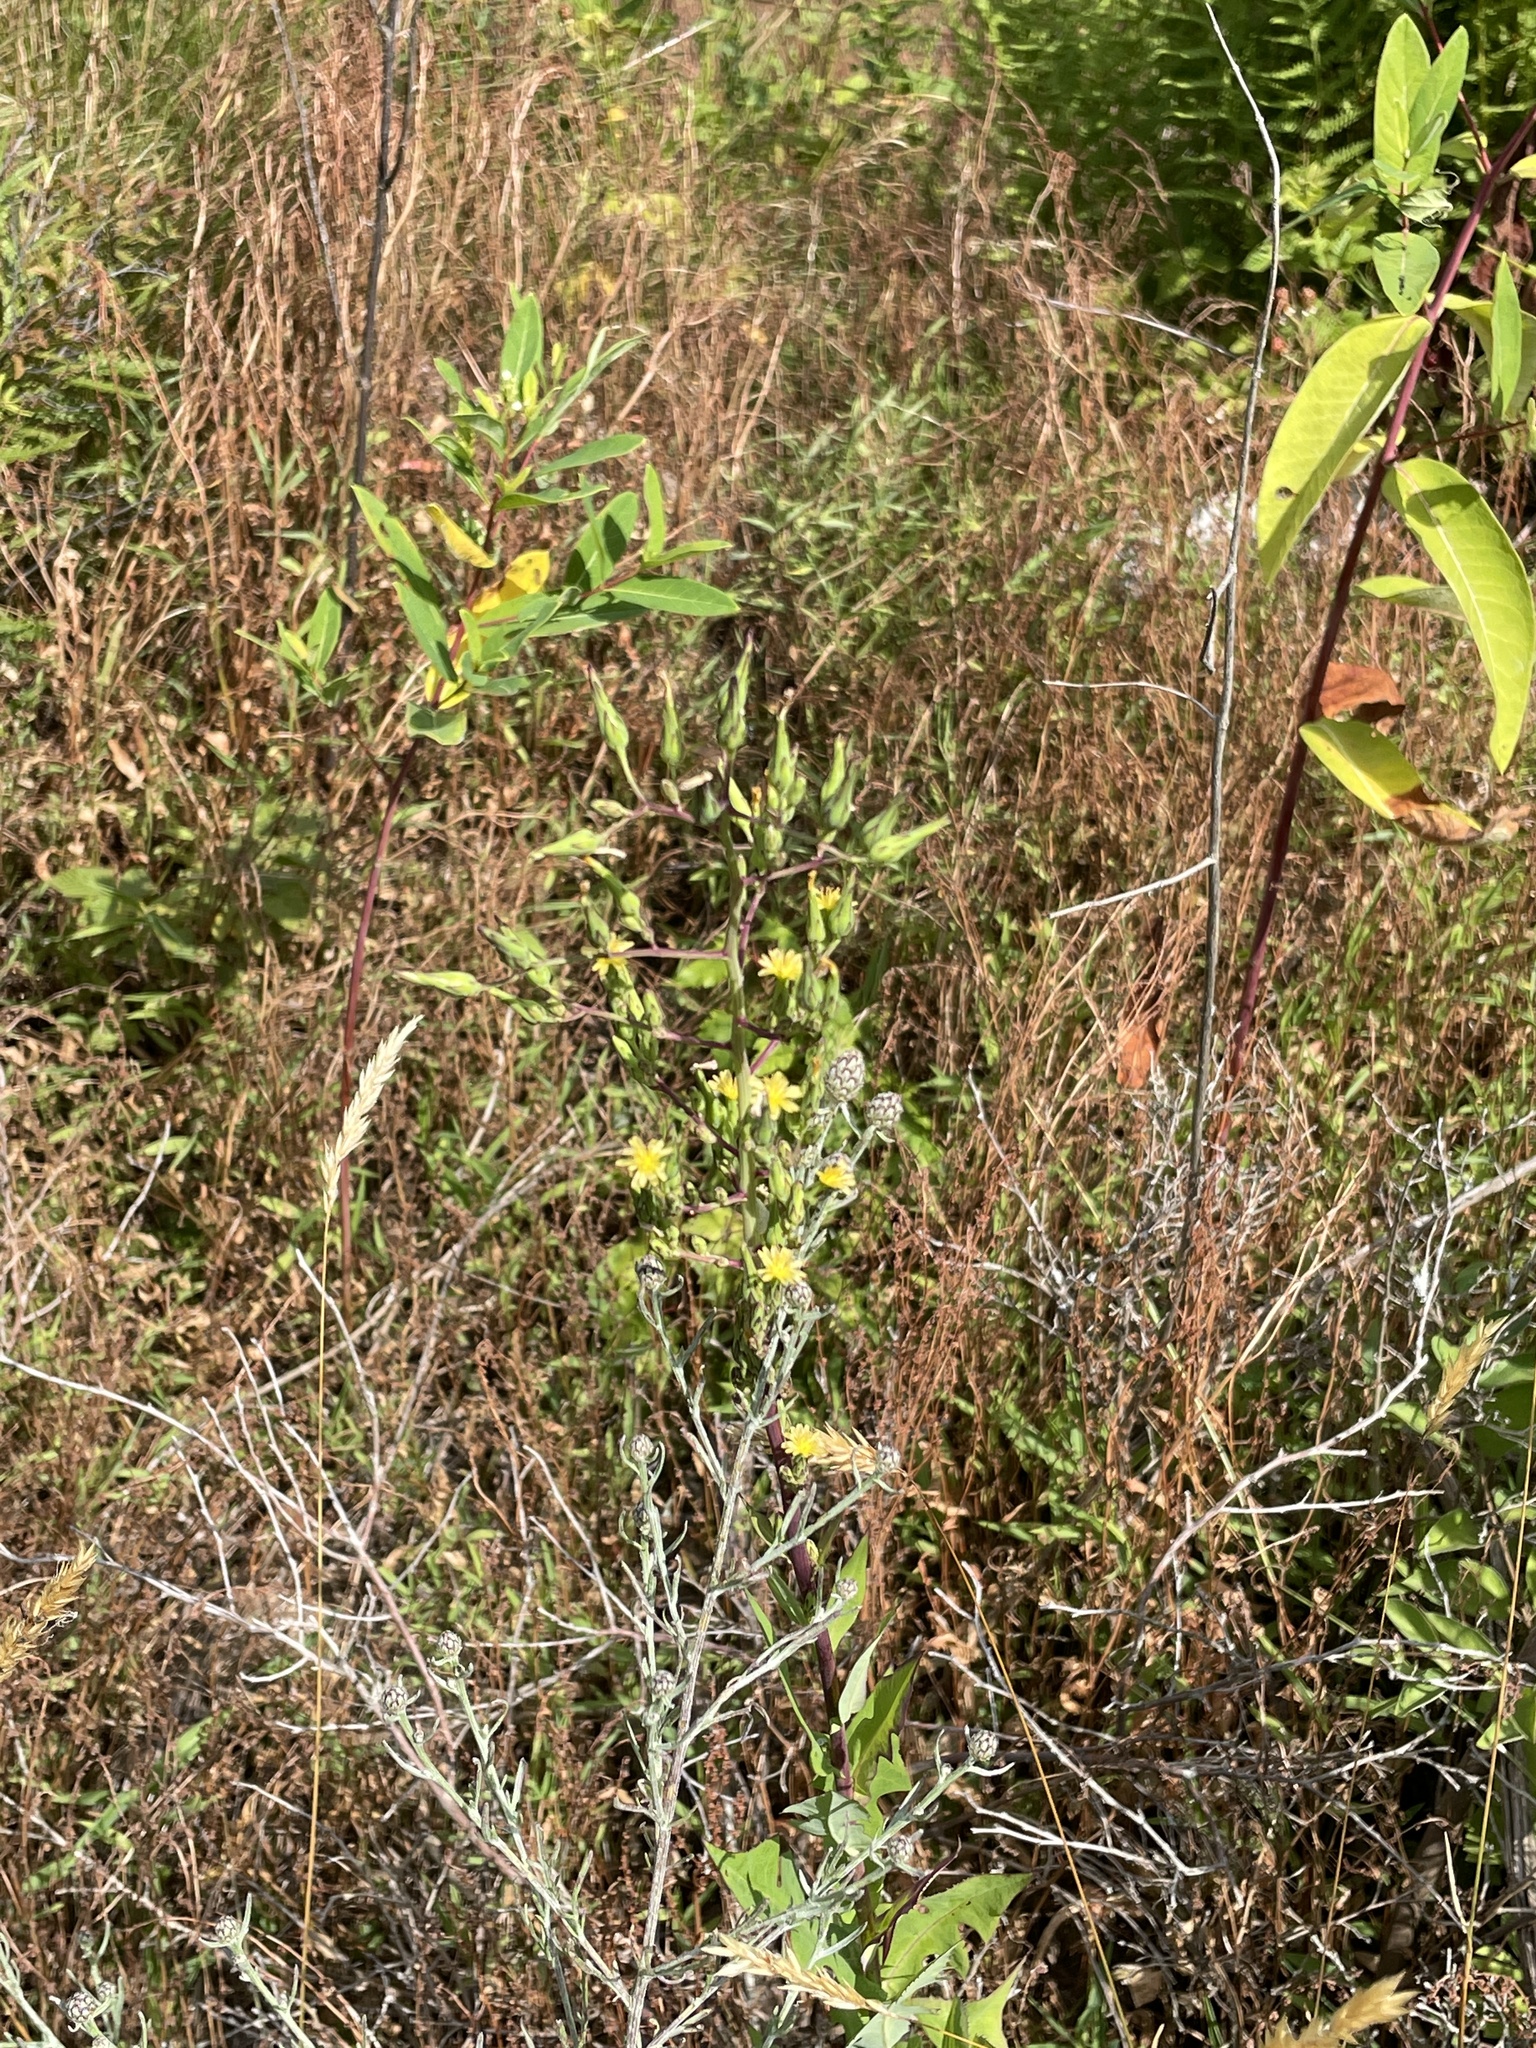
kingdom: Plantae
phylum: Tracheophyta
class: Magnoliopsida
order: Asterales
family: Asteraceae
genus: Lactuca
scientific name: Lactuca canadensis
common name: Canada lettuce
